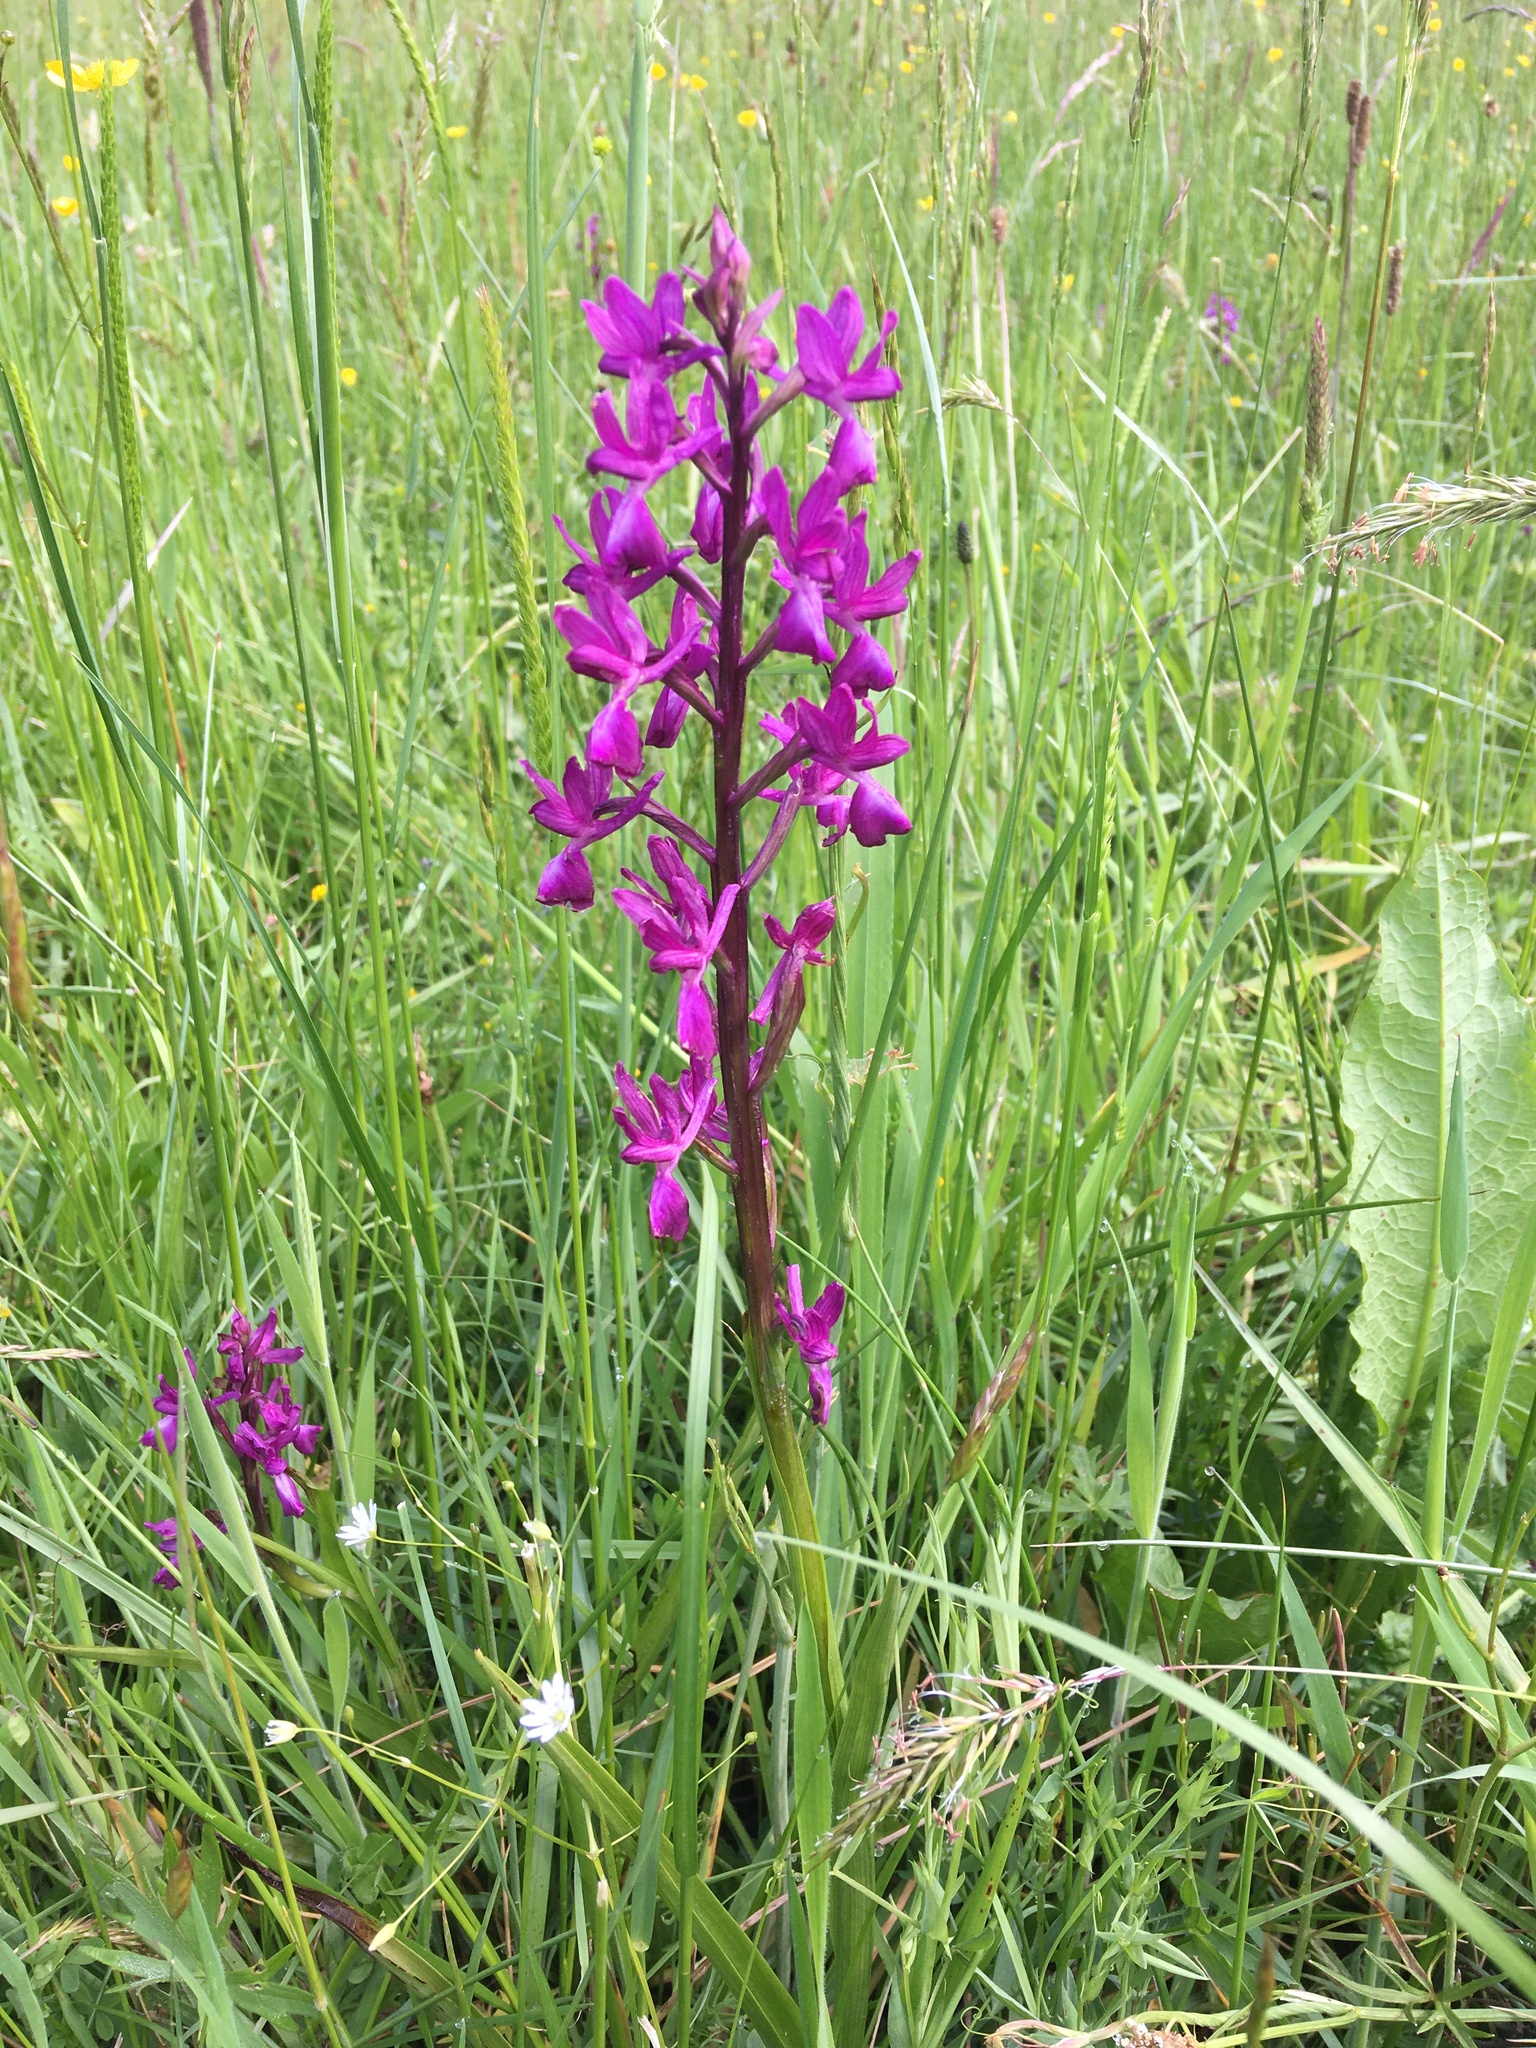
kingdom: Plantae
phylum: Tracheophyta
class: Liliopsida
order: Asparagales
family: Orchidaceae
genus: Anacamptis
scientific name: Anacamptis laxiflora
